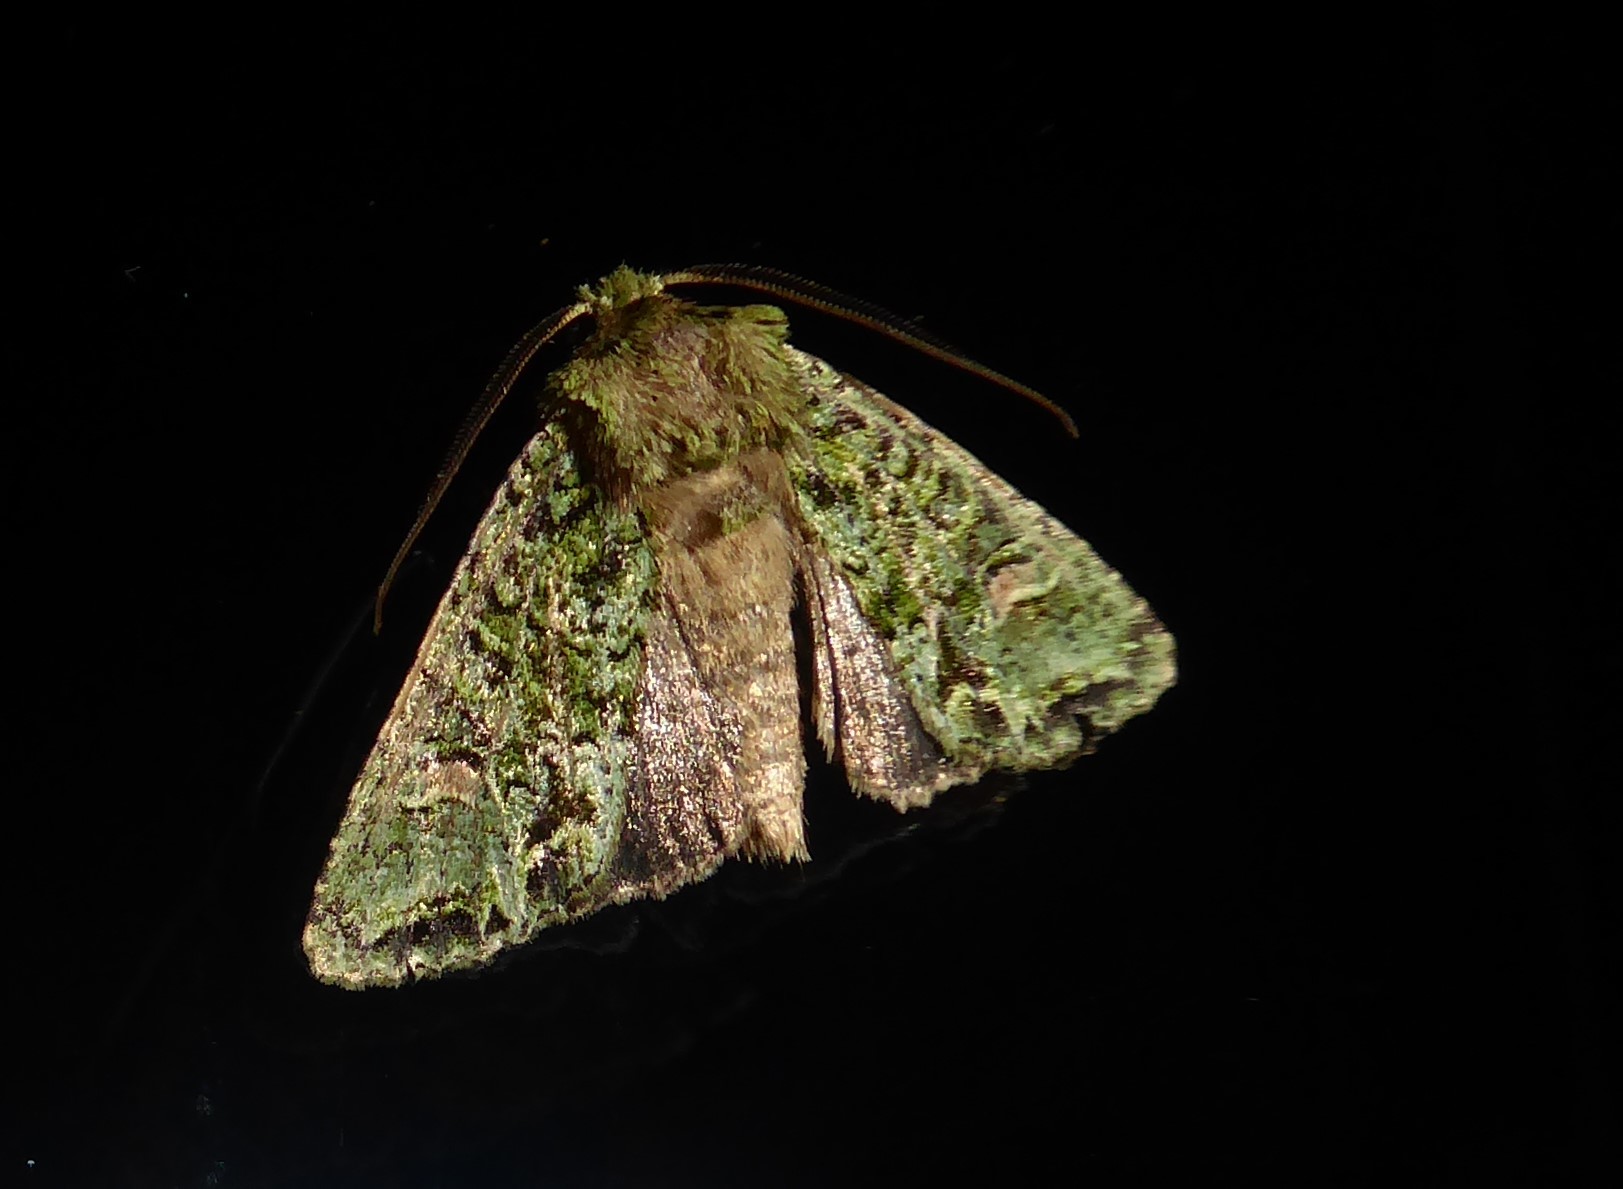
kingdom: Animalia
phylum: Arthropoda
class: Insecta
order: Lepidoptera
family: Noctuidae
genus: Ichneutica
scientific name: Ichneutica
